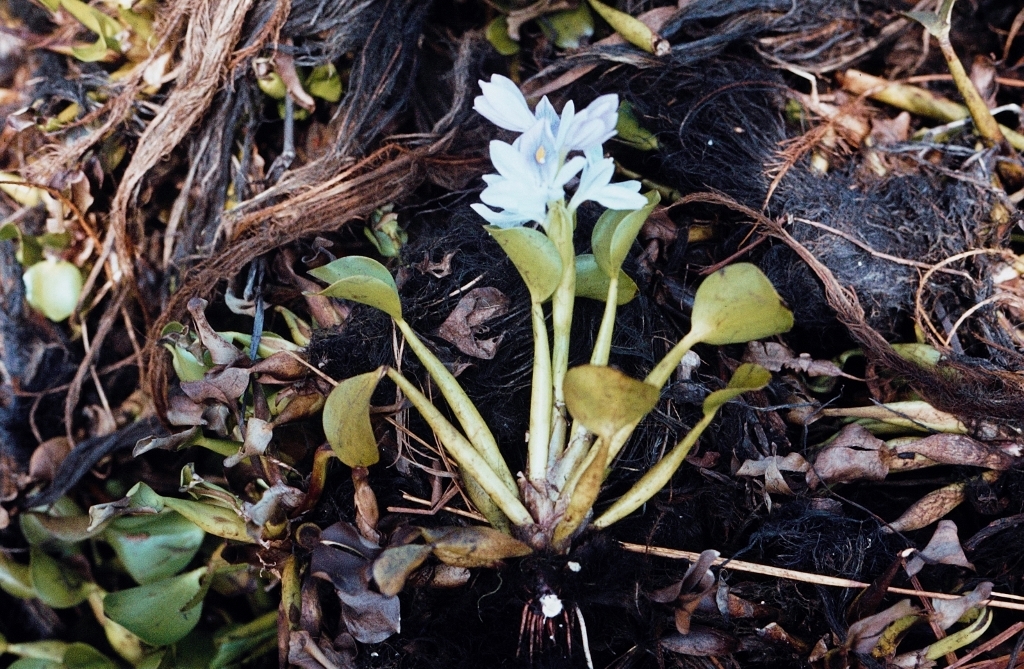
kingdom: Plantae
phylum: Tracheophyta
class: Liliopsida
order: Commelinales
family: Pontederiaceae
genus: Pontederia
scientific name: Pontederia crassipes
